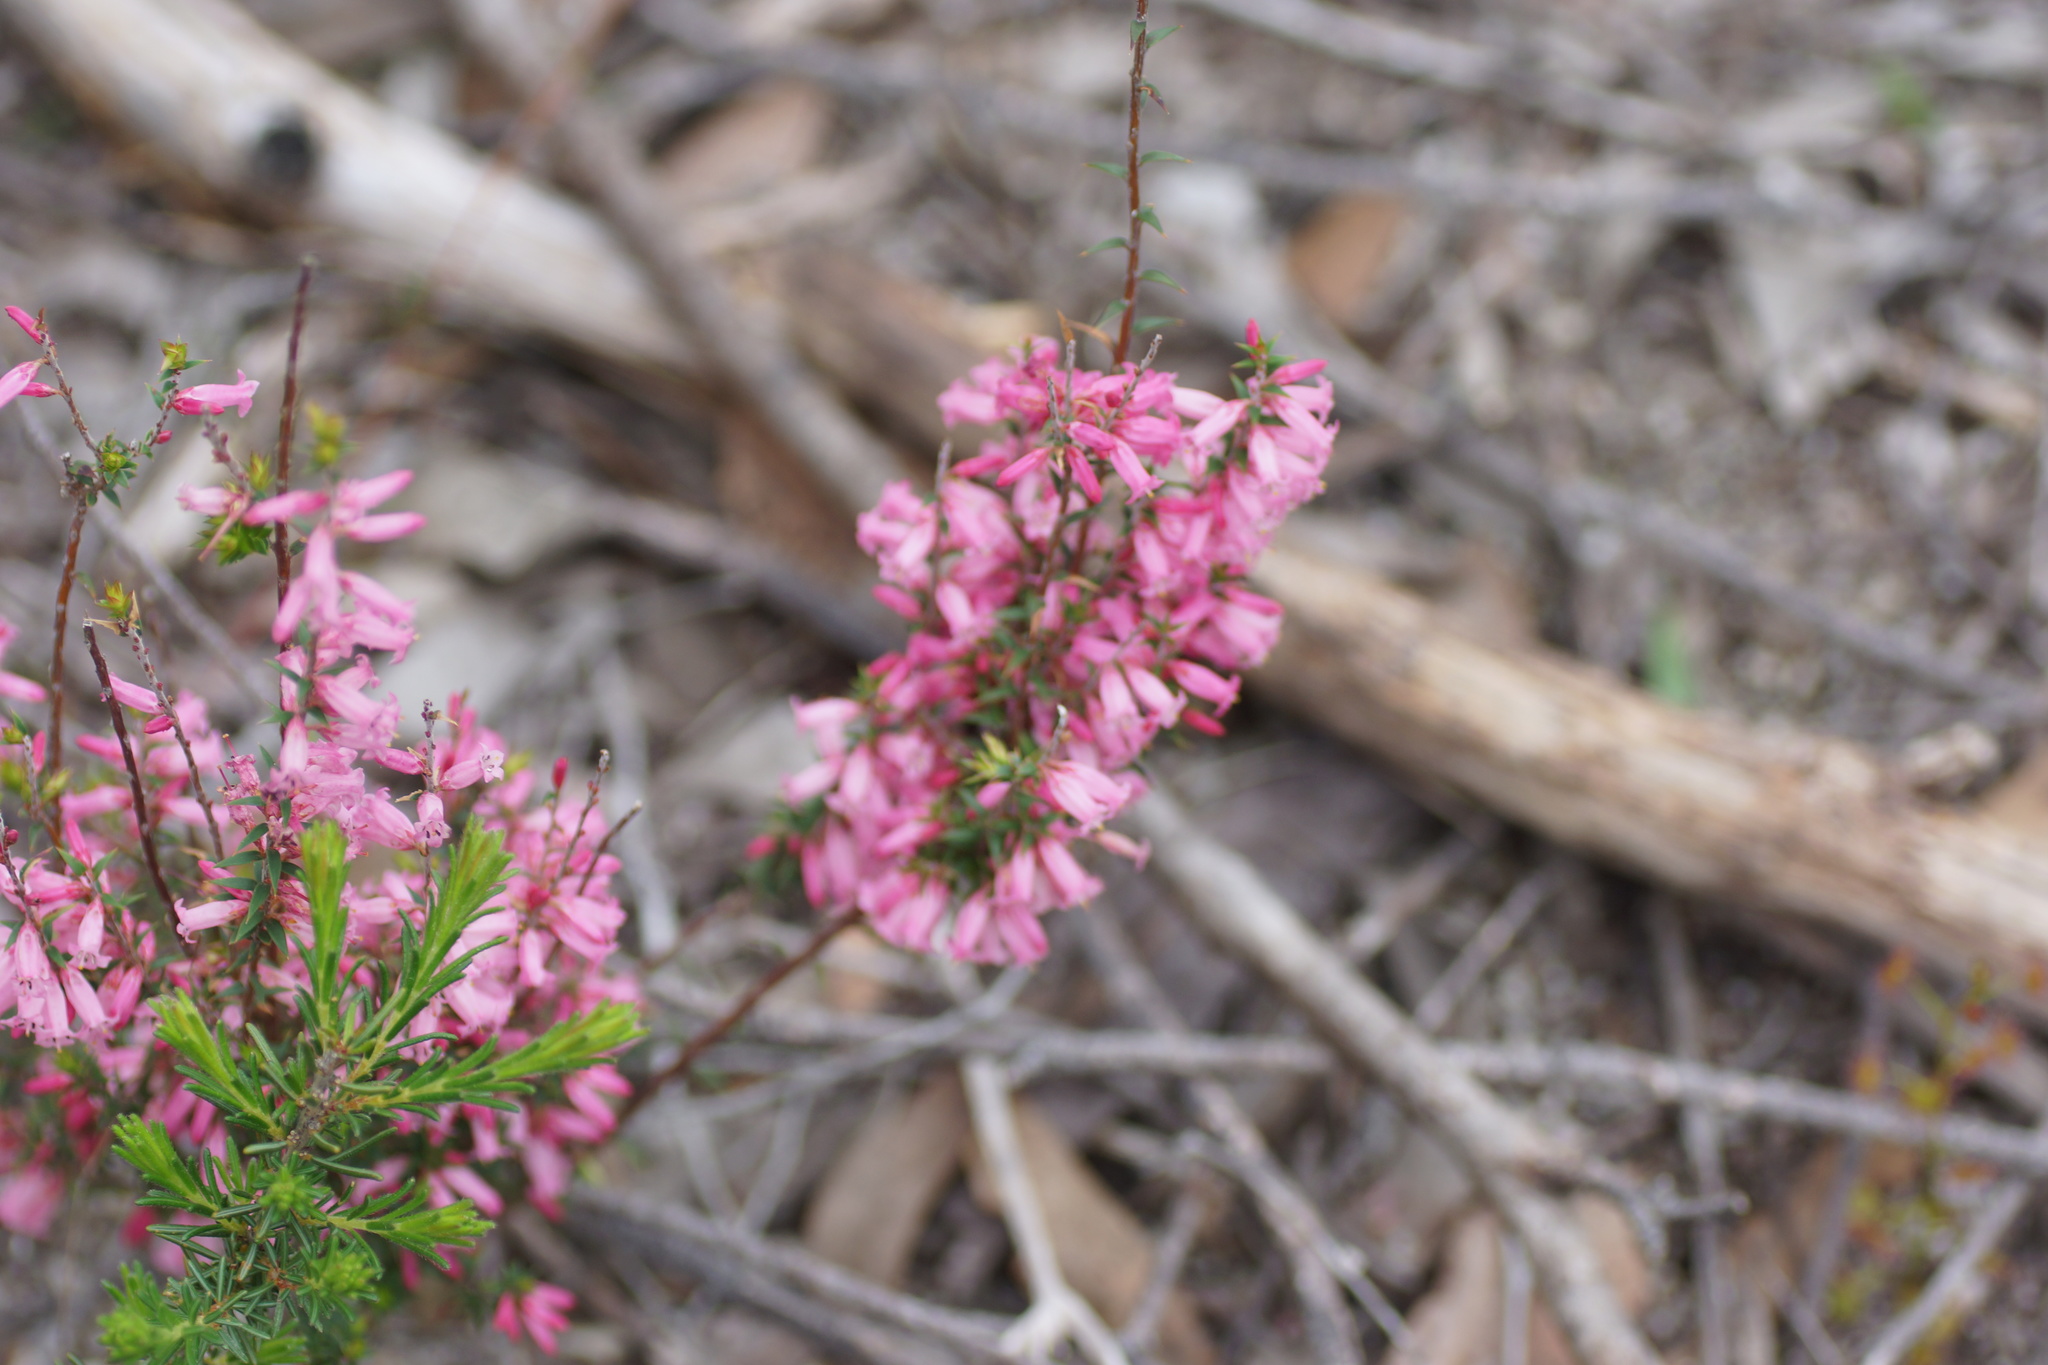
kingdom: Plantae
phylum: Tracheophyta
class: Magnoliopsida
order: Ericales
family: Ericaceae
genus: Epacris
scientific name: Epacris impressa
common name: Common-heath
